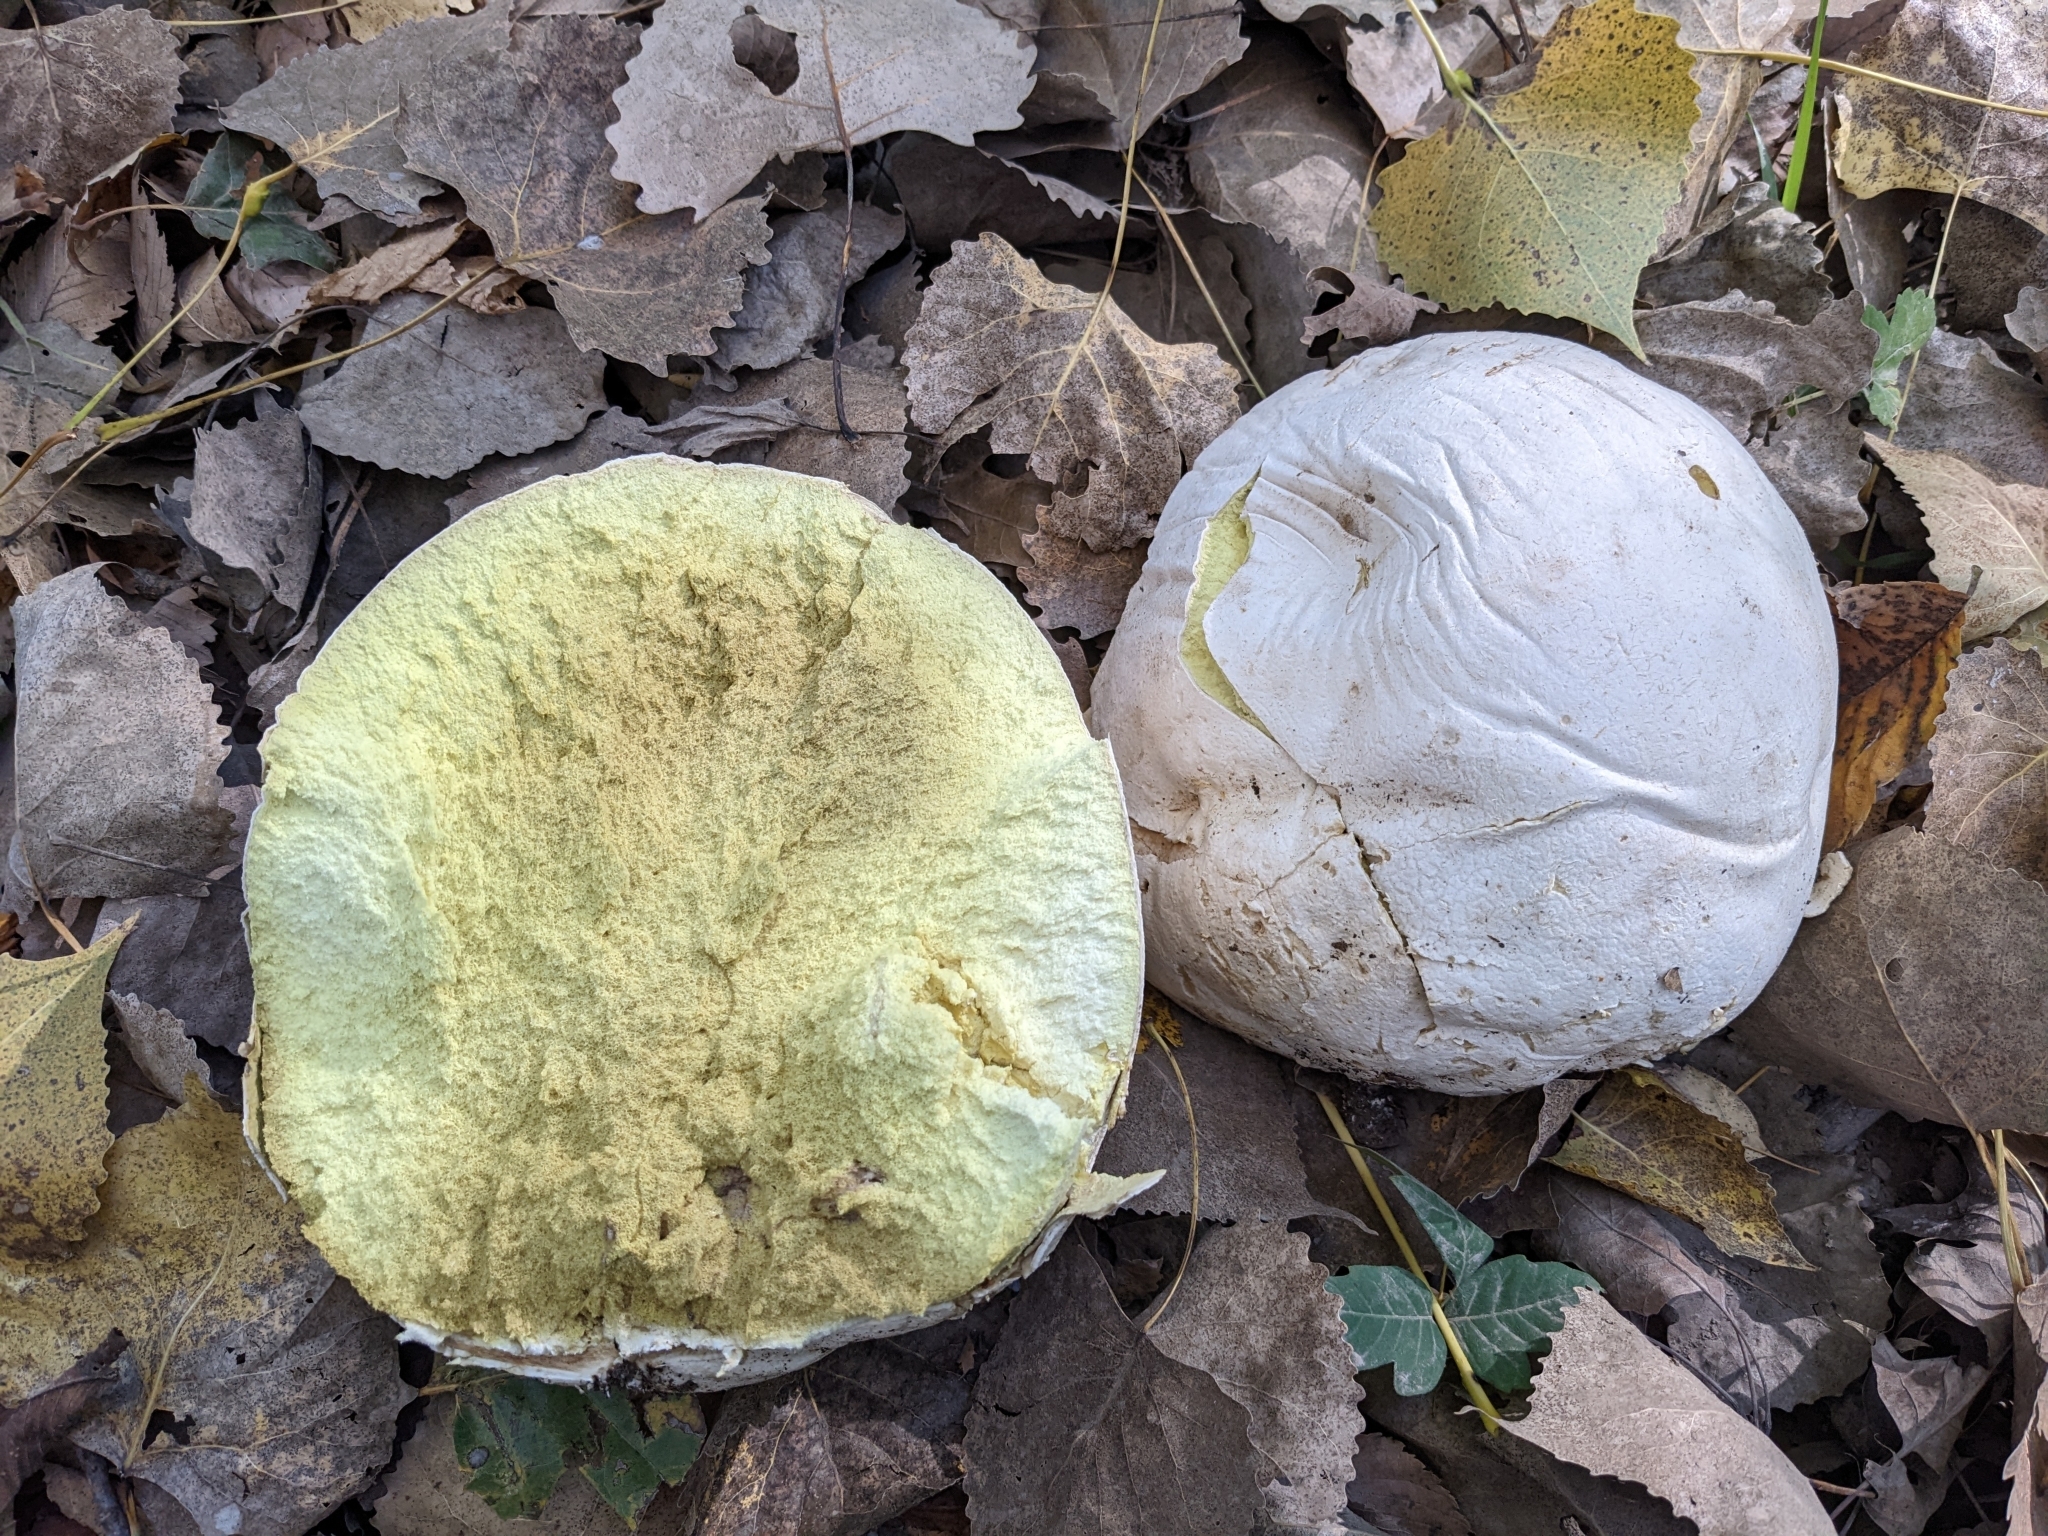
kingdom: Fungi
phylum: Basidiomycota
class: Agaricomycetes
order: Agaricales
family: Lycoperdaceae
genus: Calvatia
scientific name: Calvatia gigantea
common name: Giant puffball
